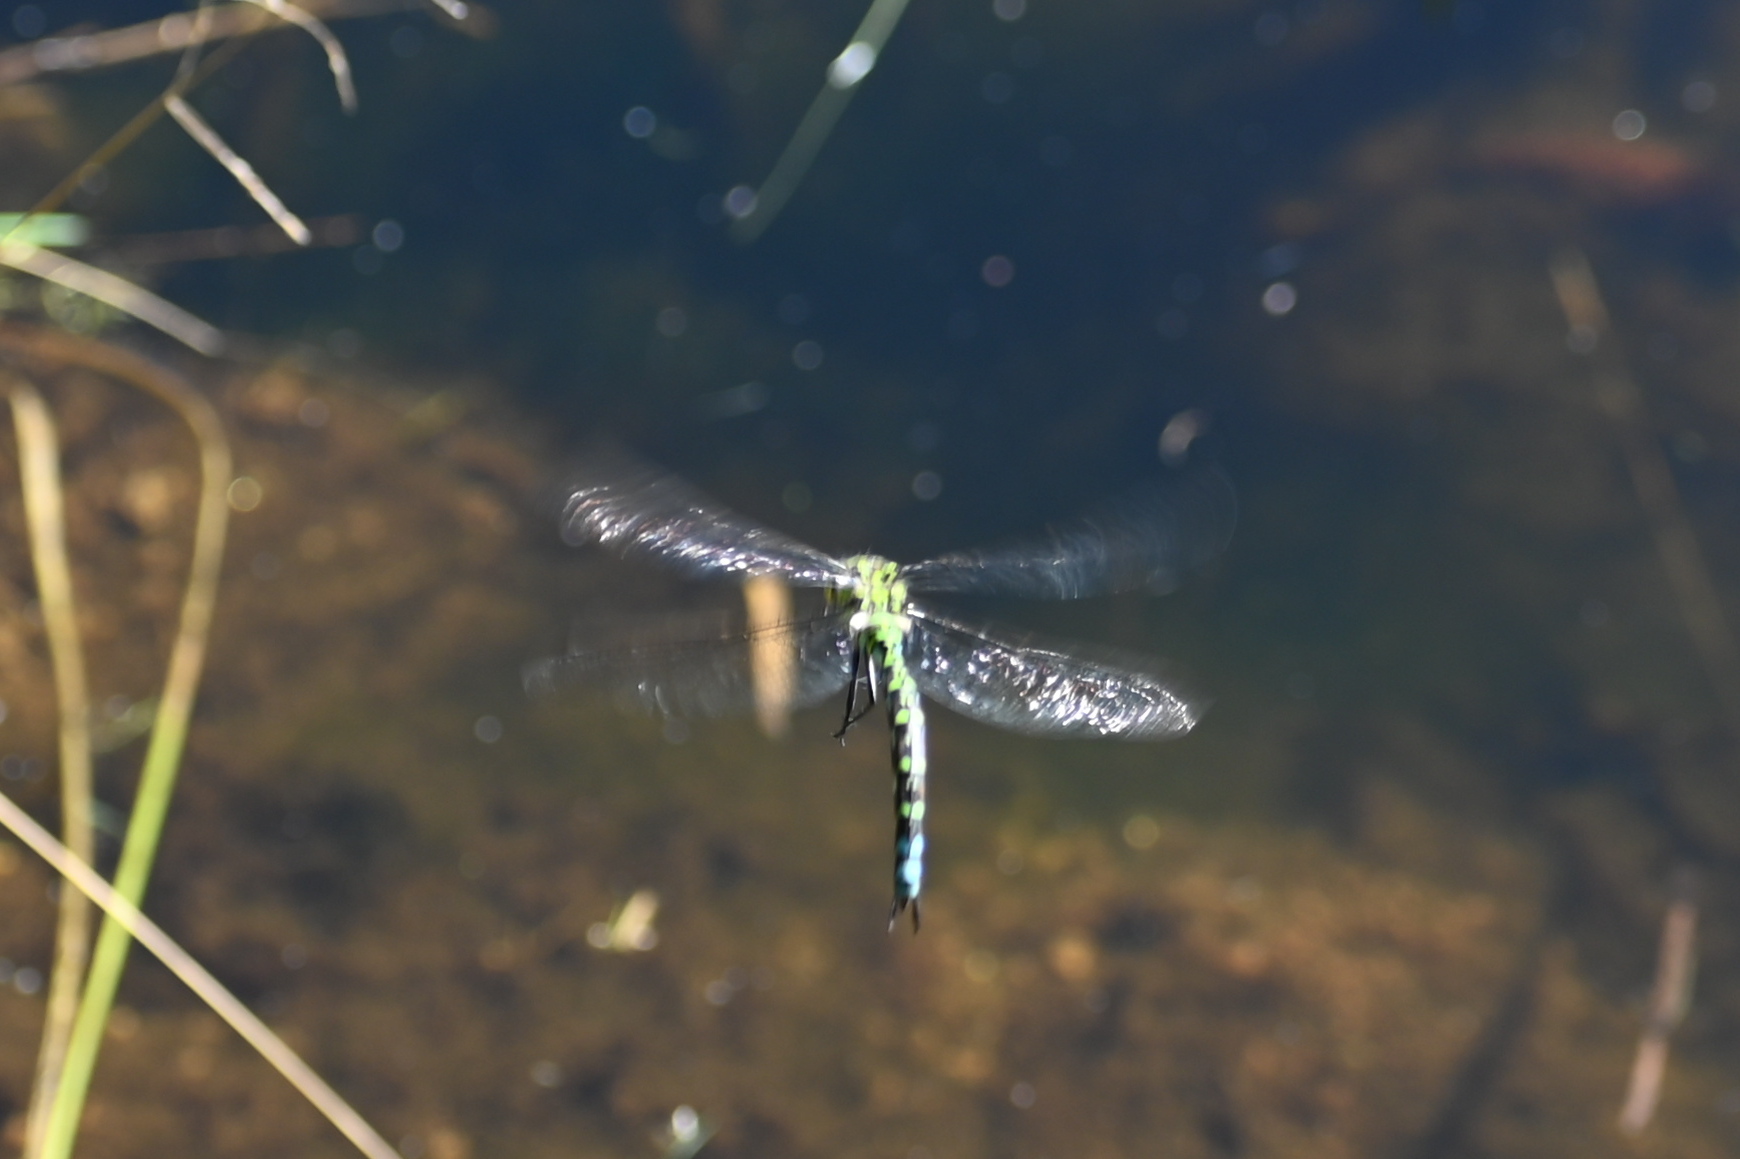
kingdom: Animalia
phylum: Arthropoda
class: Insecta
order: Odonata
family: Aeshnidae
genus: Aeshna
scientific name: Aeshna cyanea
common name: Southern hawker
